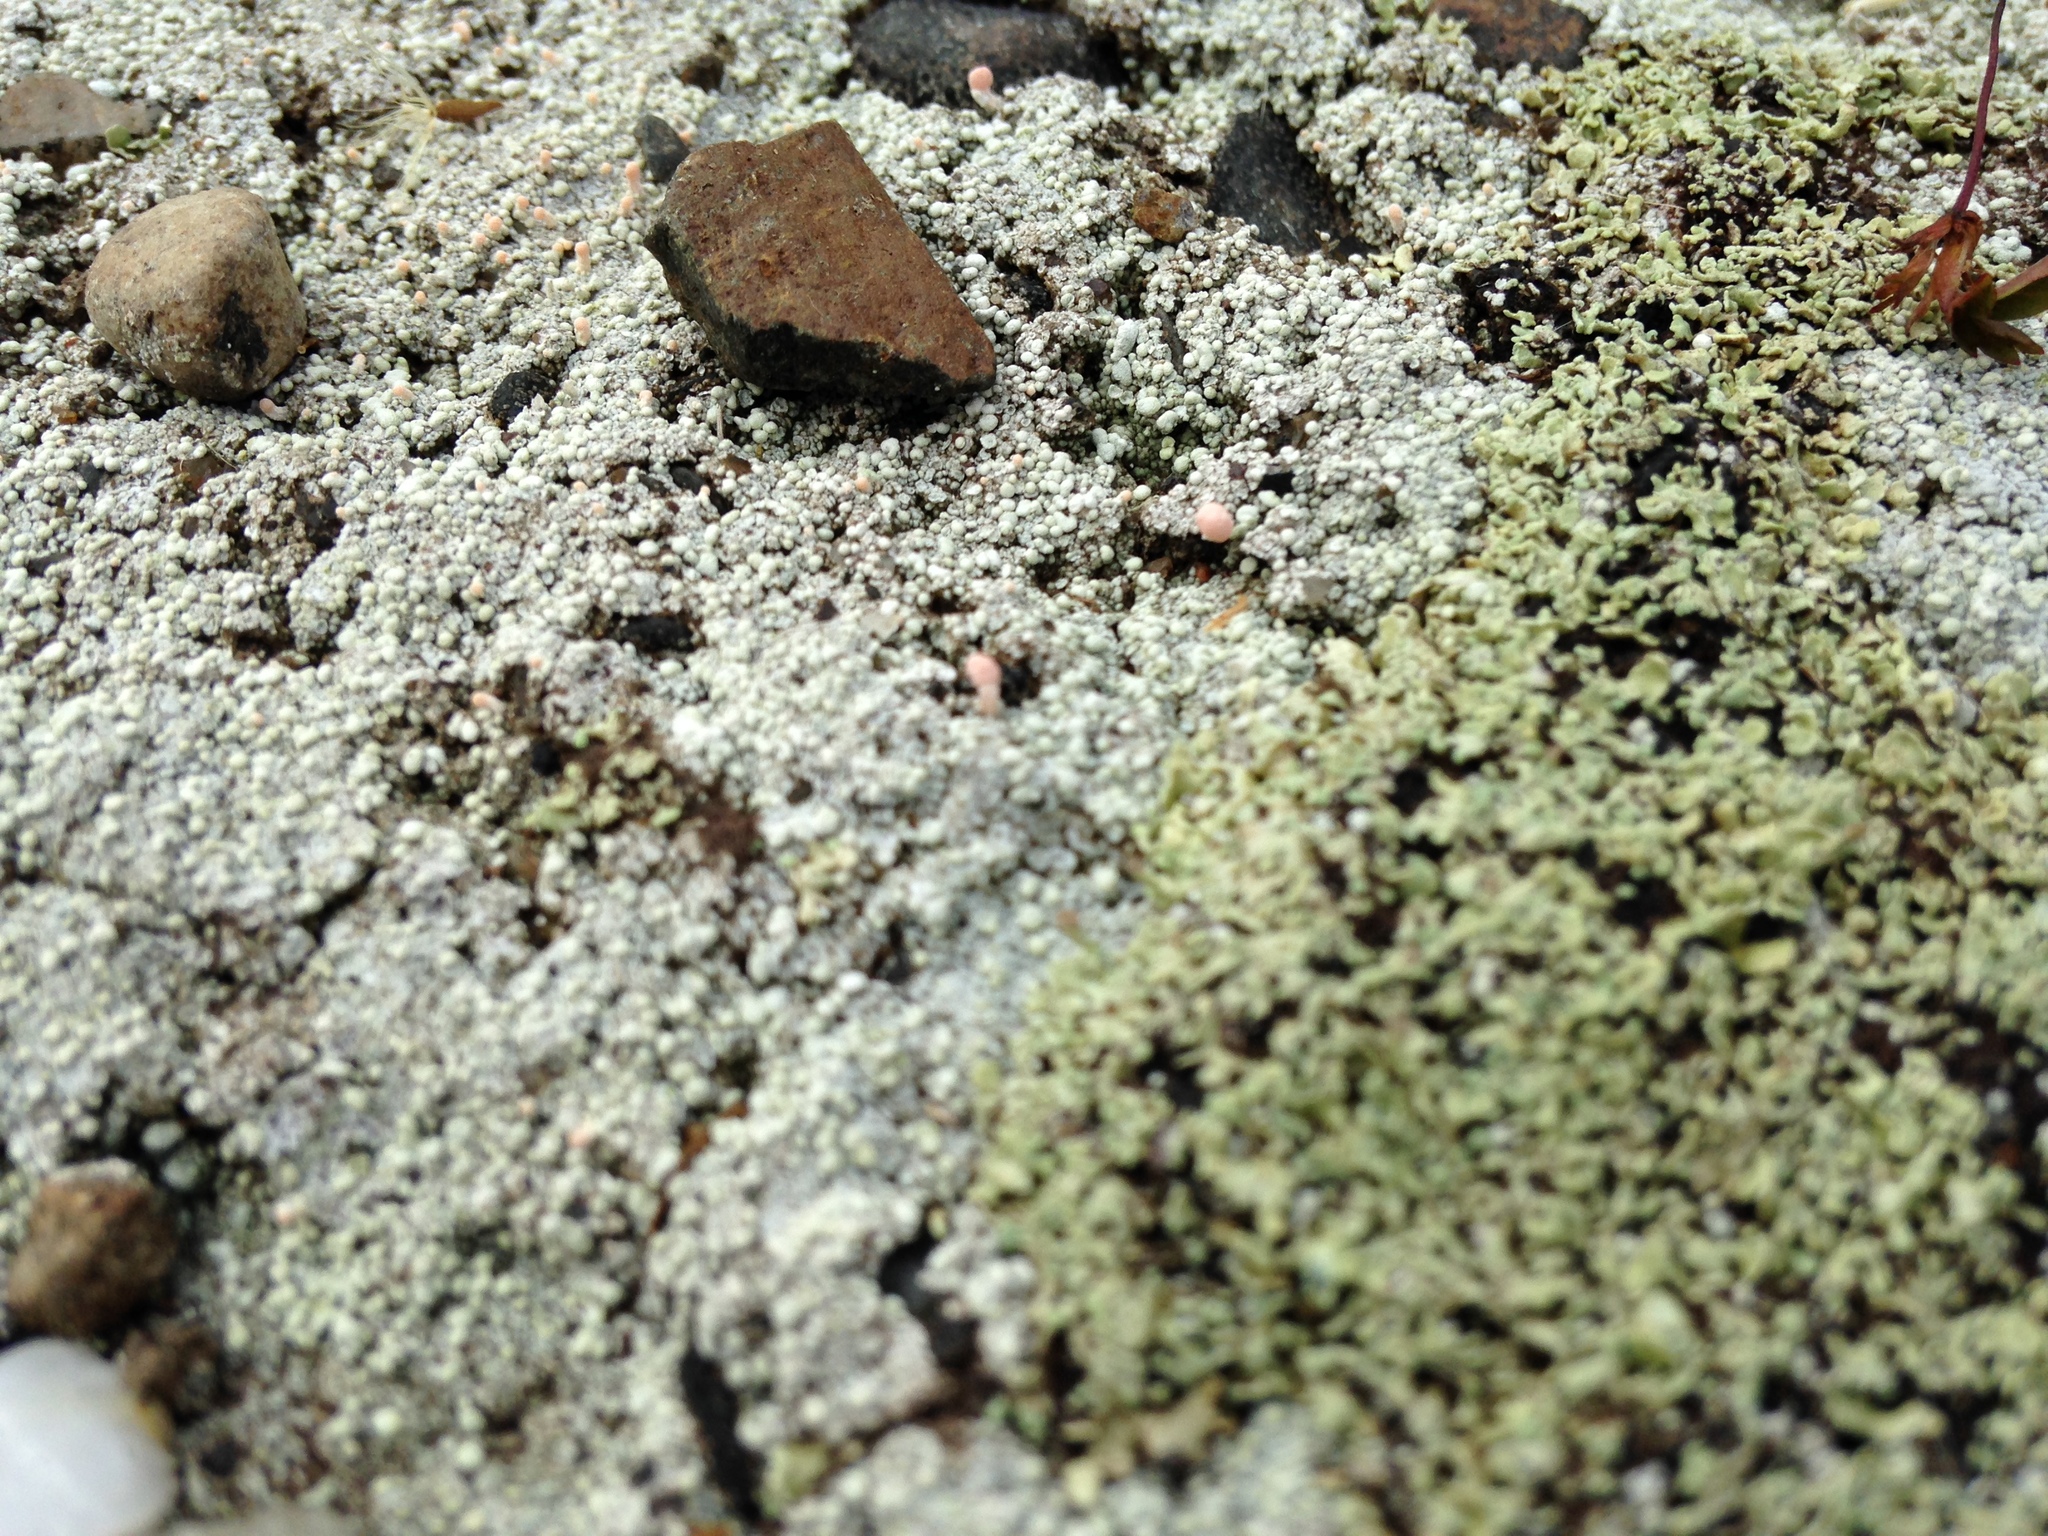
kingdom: Fungi
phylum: Ascomycota
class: Lecanoromycetes
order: Pertusariales
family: Icmadophilaceae
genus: Dibaeis
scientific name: Dibaeis baeomyces
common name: Pink earth lichen
